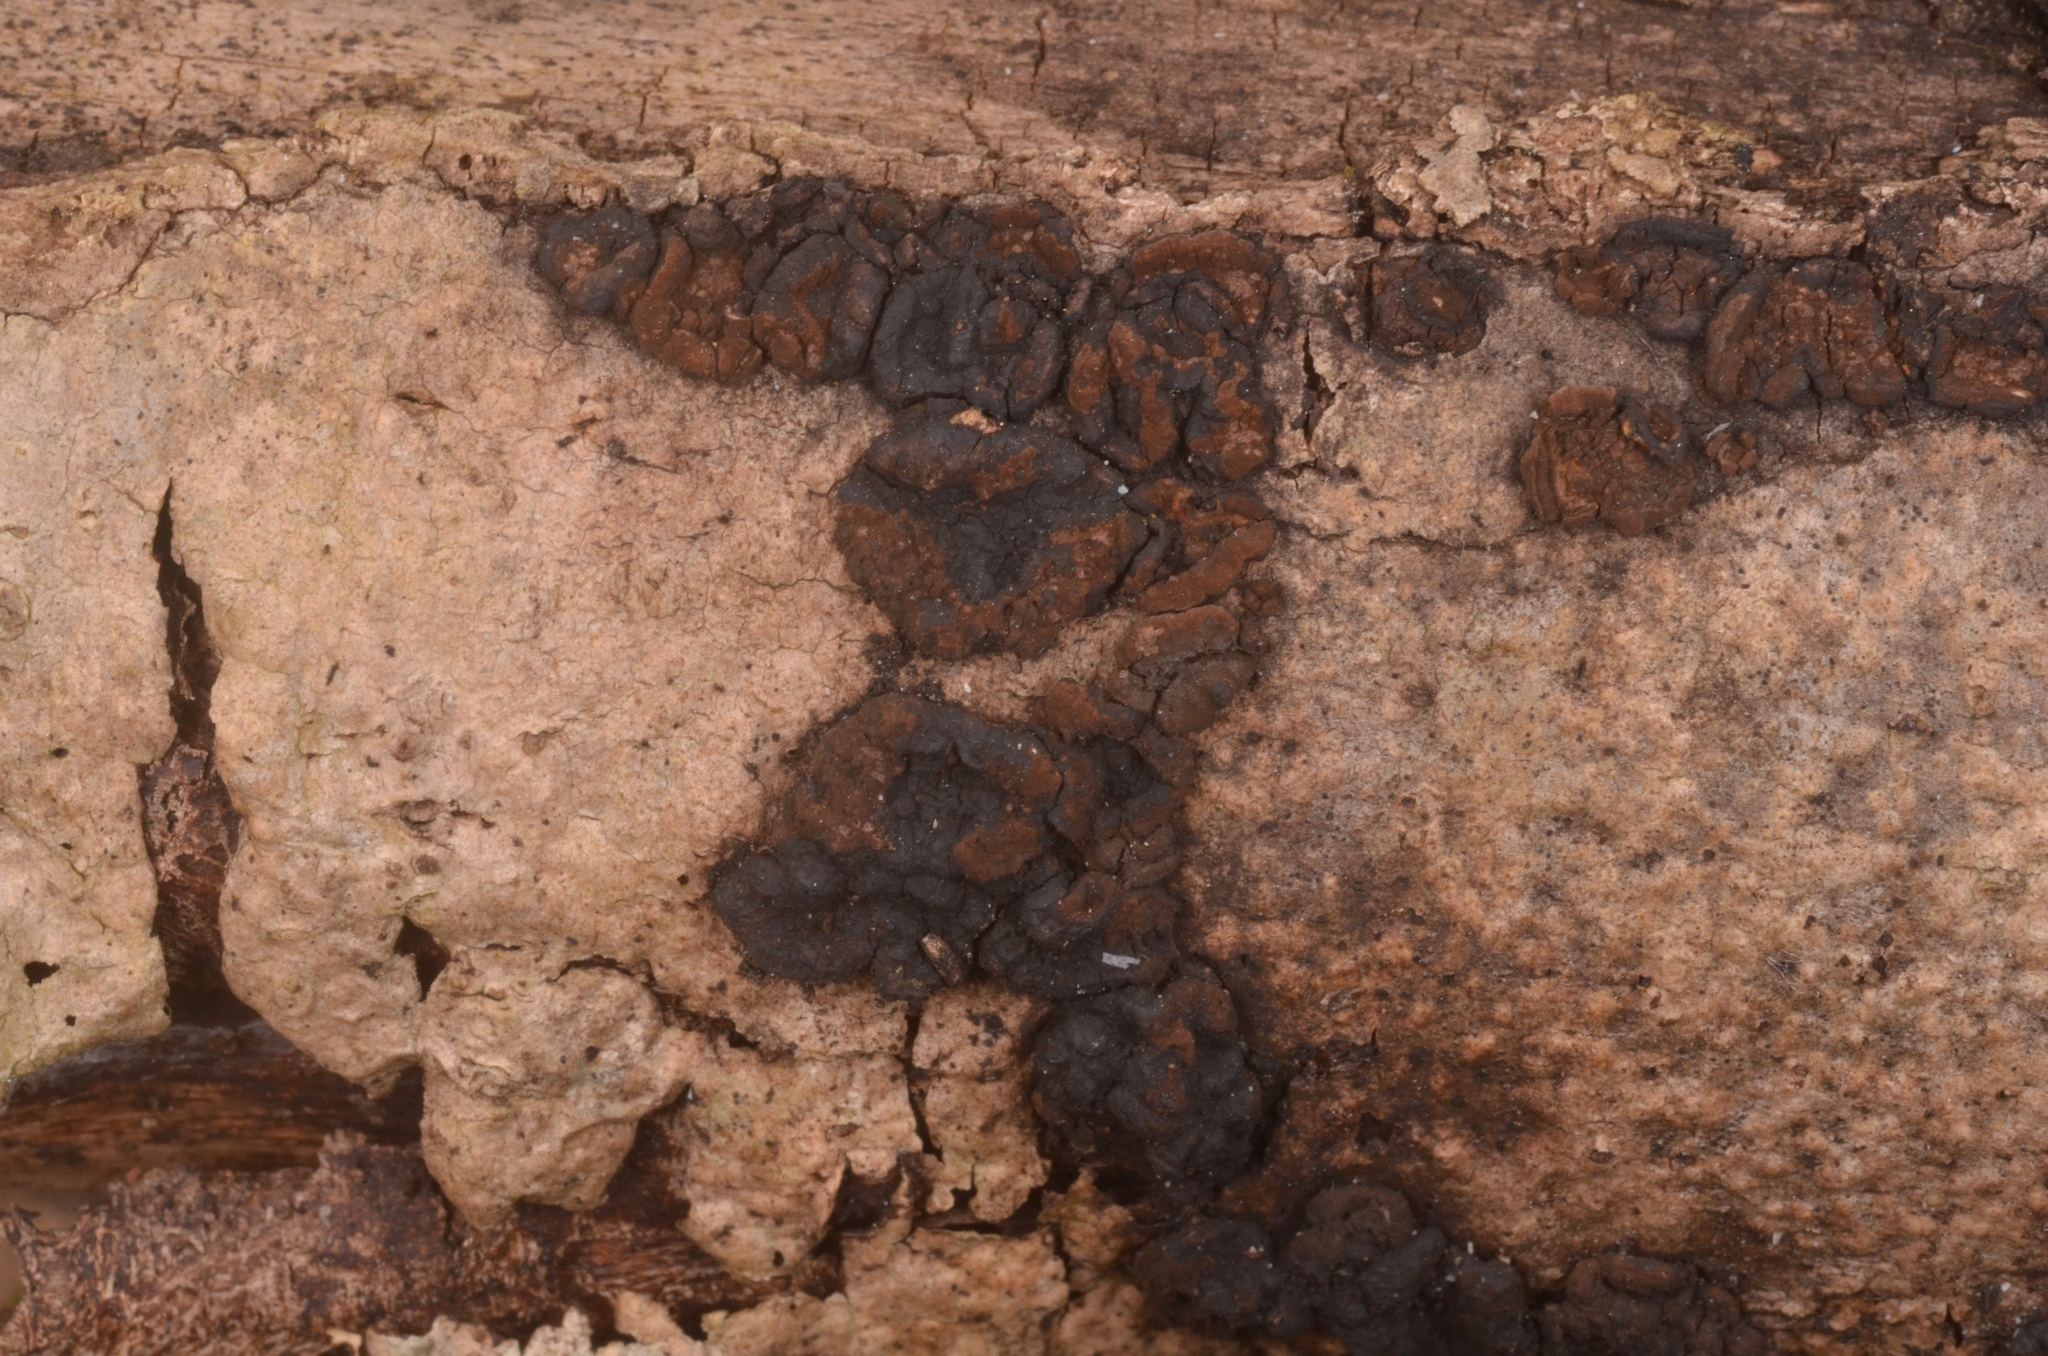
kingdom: Fungi
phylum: Ascomycota
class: Sordariomycetes
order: Xylariales
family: Hypoxylaceae
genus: Hypoxylon
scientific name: Hypoxylon cercidicola
